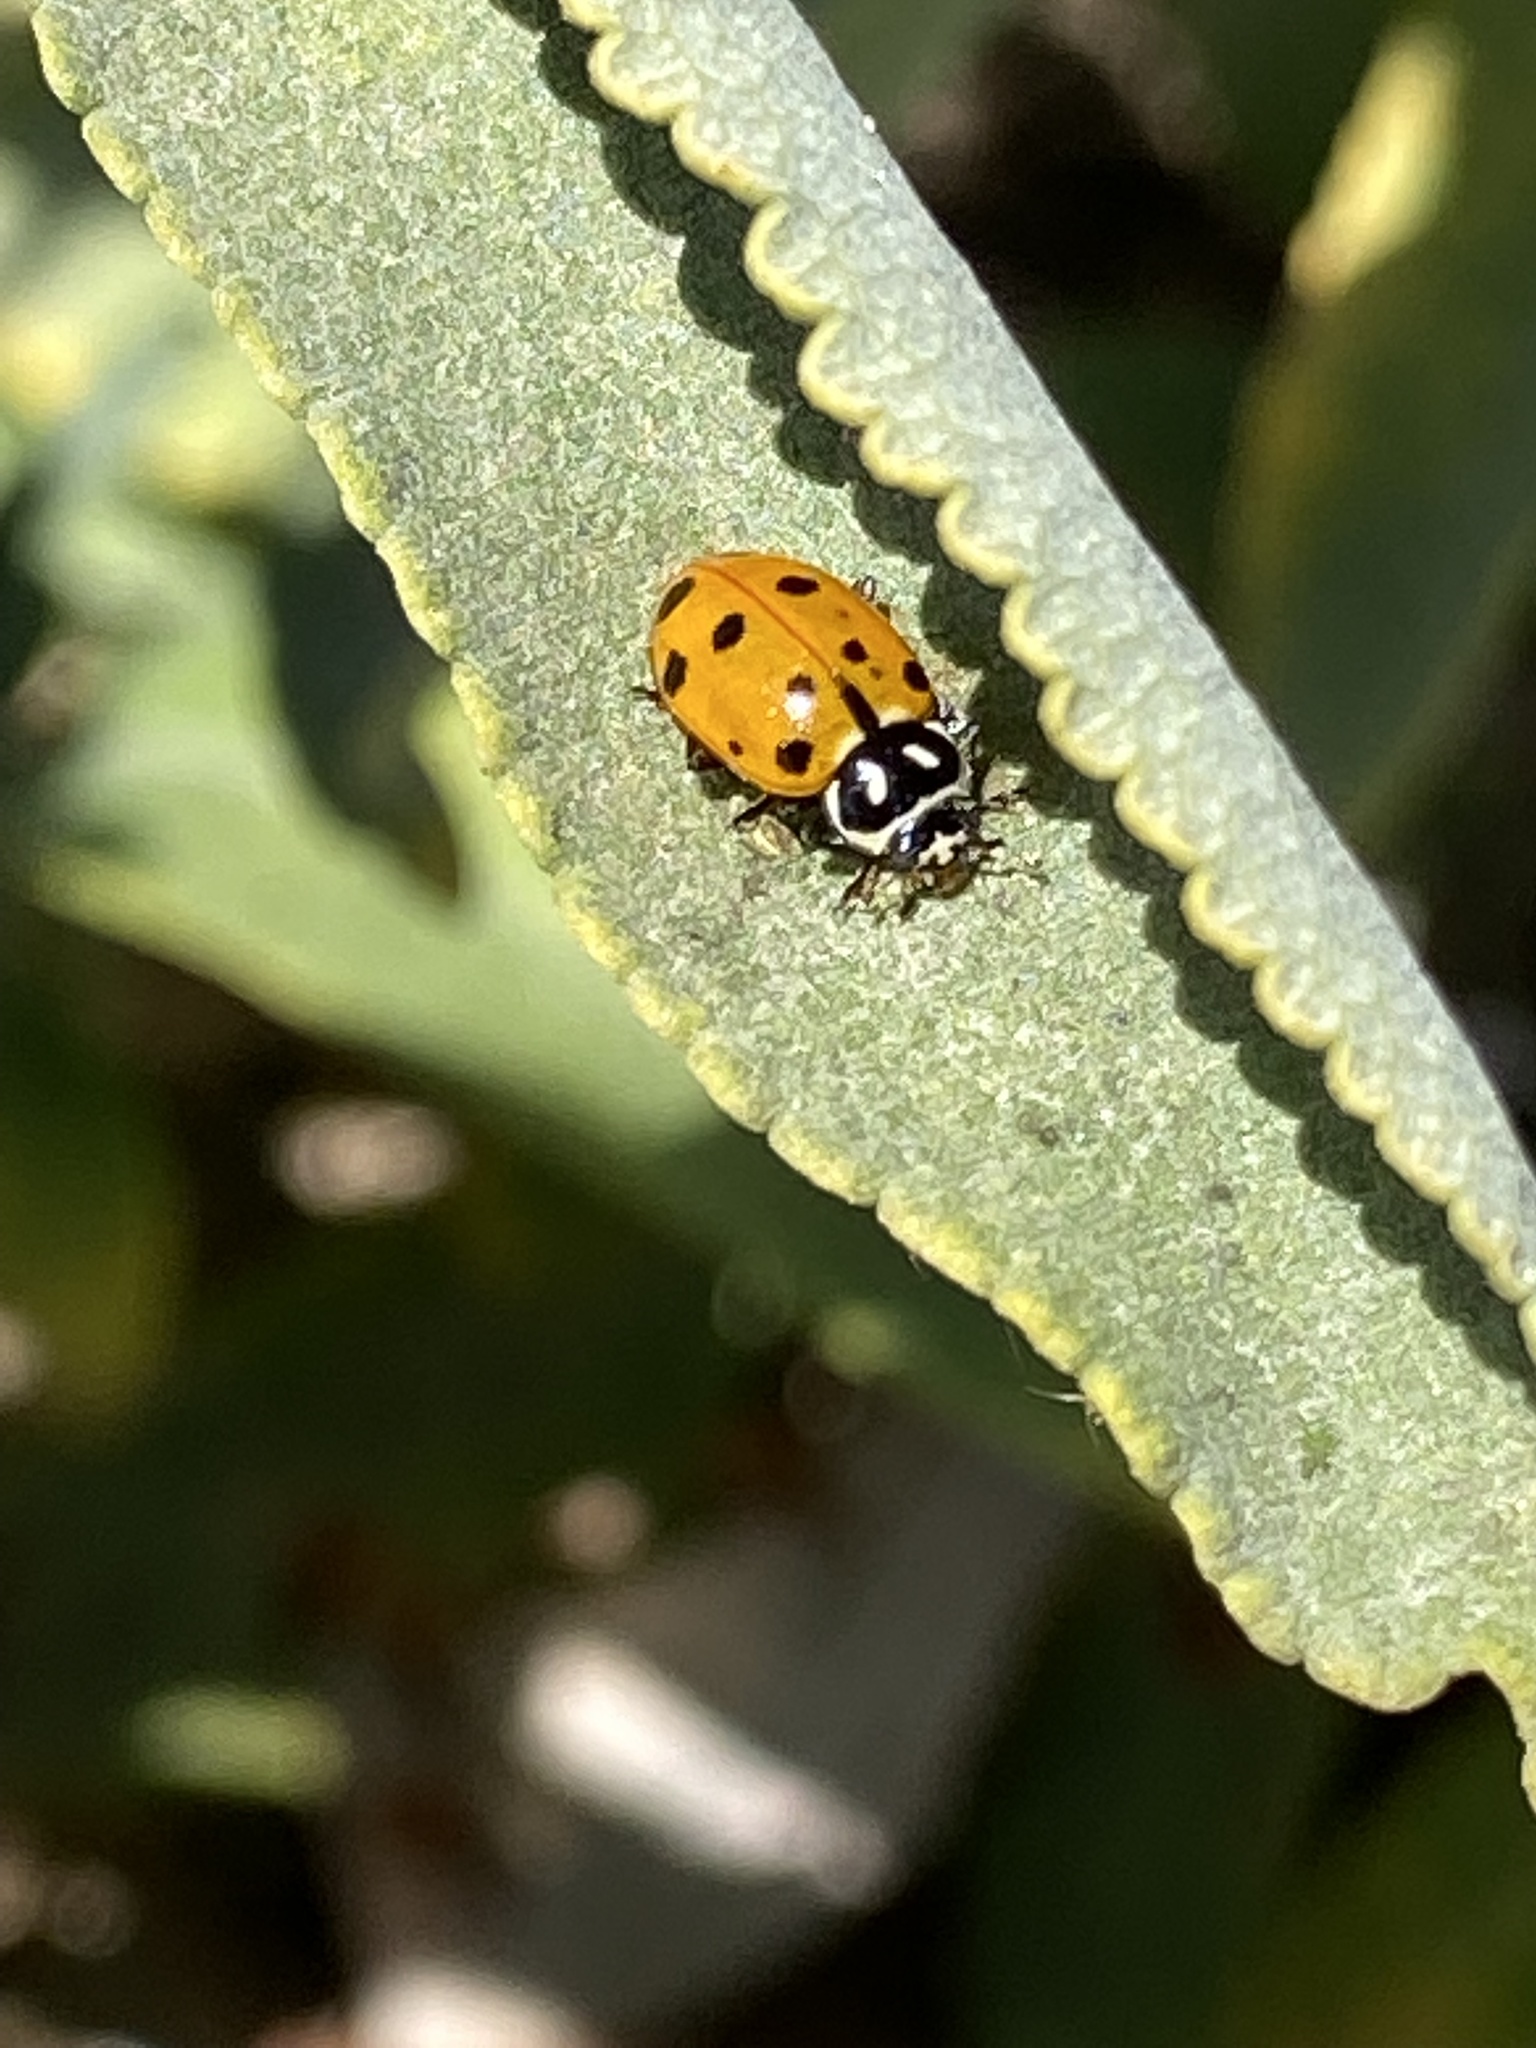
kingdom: Animalia
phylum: Arthropoda
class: Insecta
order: Coleoptera
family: Coccinellidae
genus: Hippodamia
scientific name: Hippodamia convergens
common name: Convergent lady beetle
